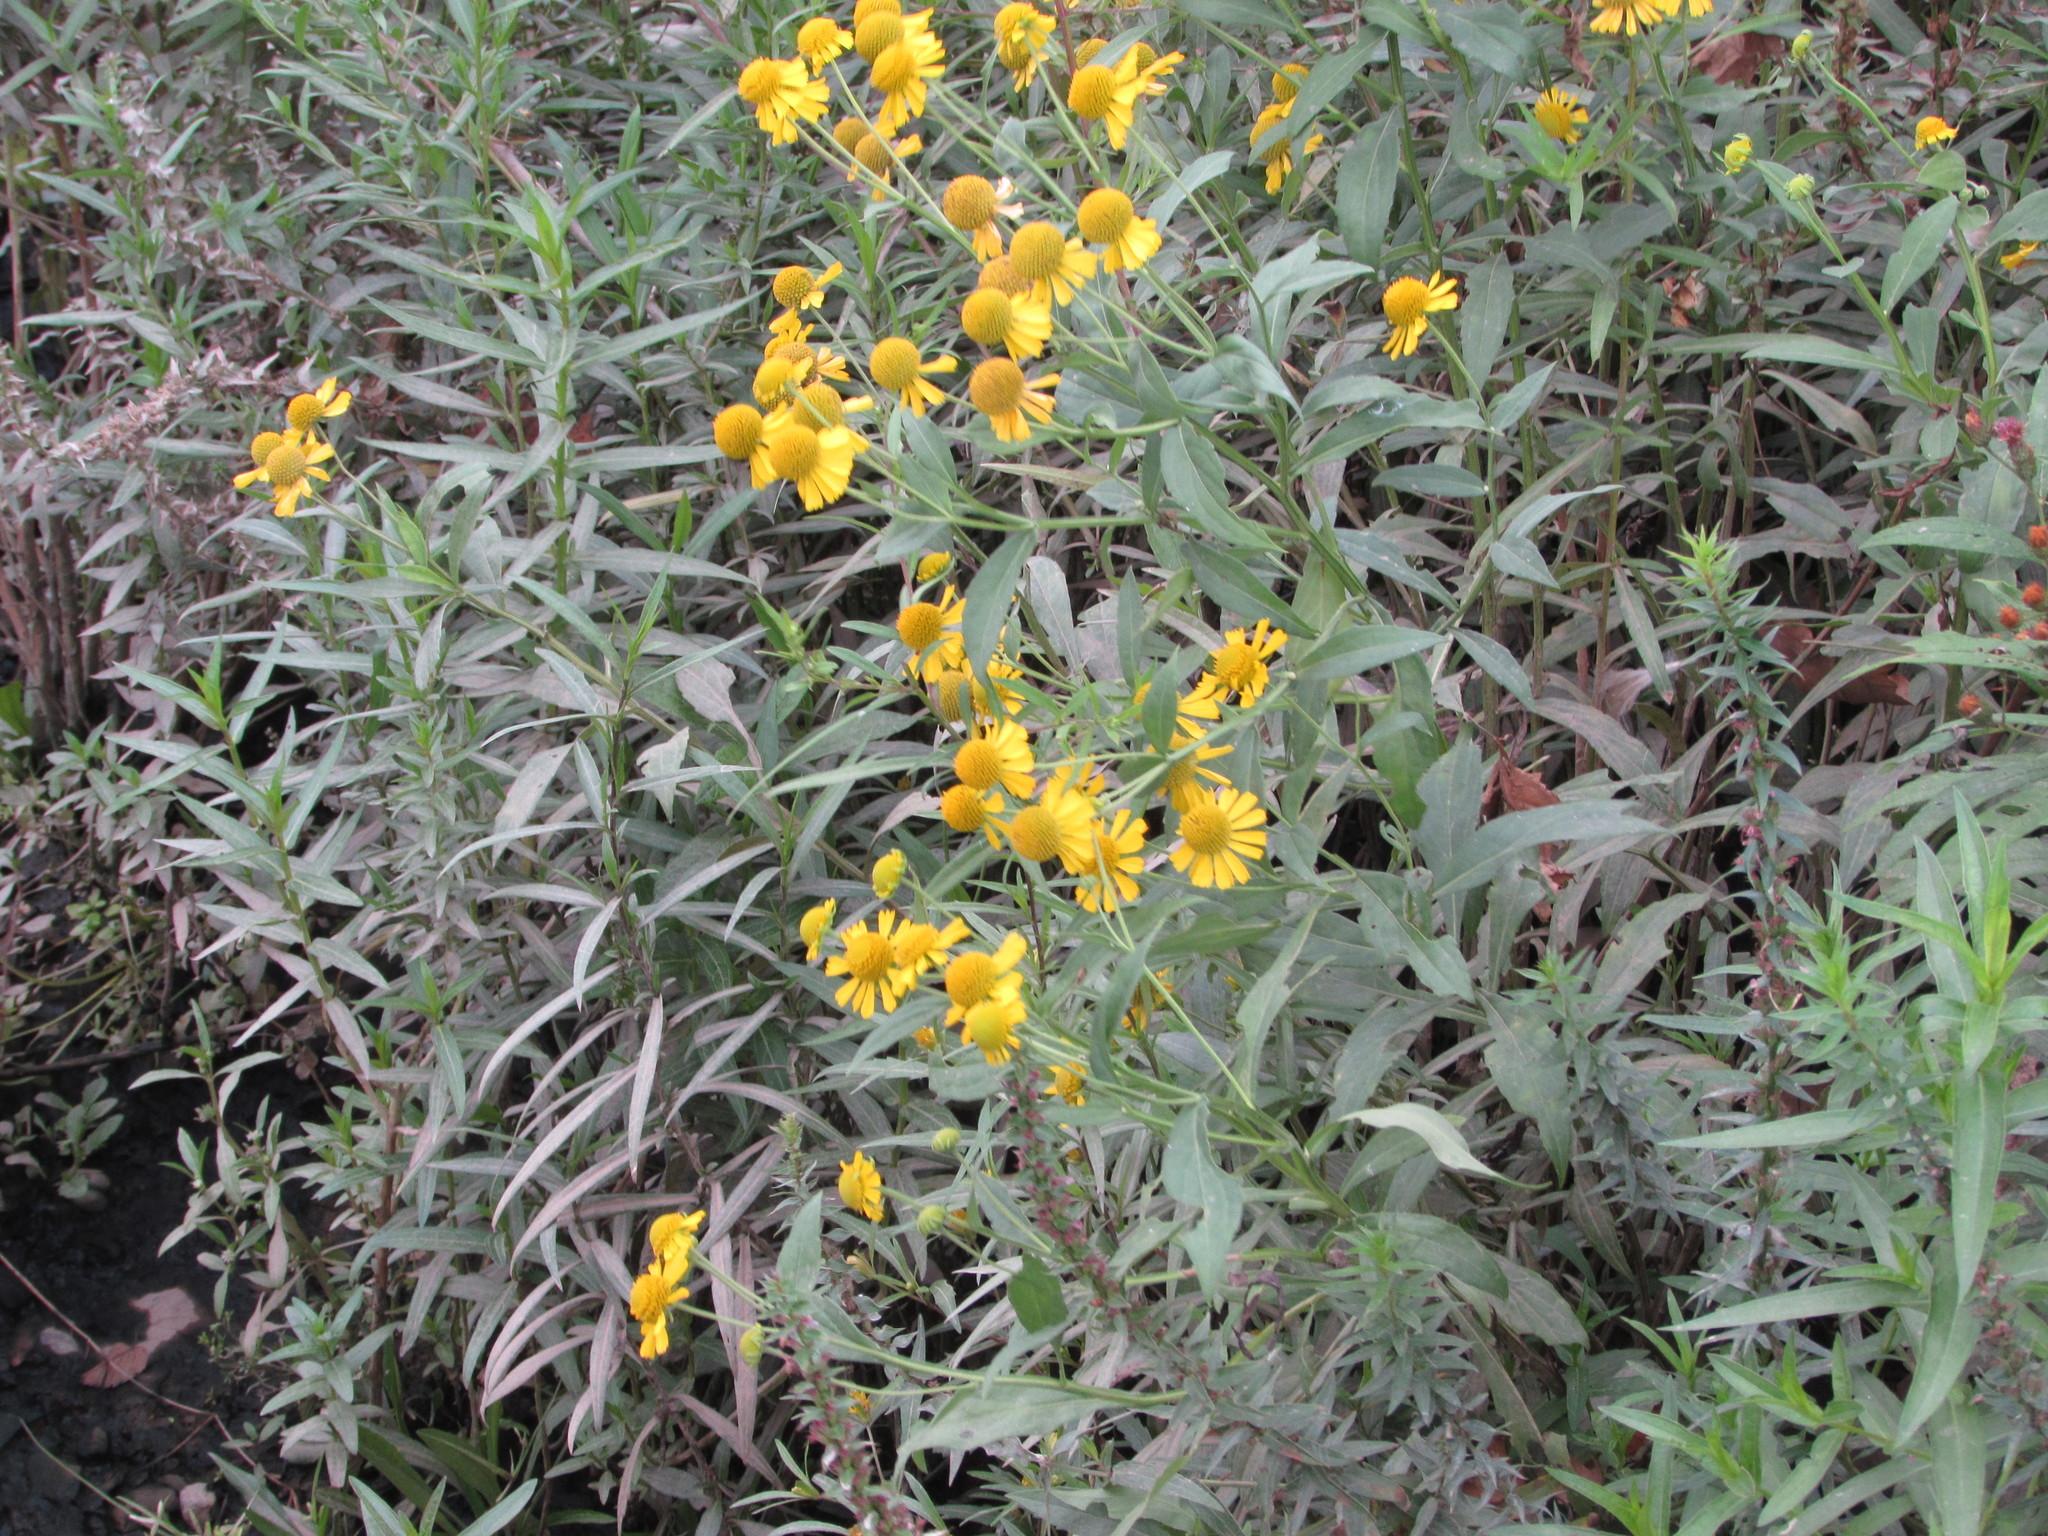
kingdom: Plantae
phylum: Tracheophyta
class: Magnoliopsida
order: Asterales
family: Asteraceae
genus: Helenium
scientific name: Helenium autumnale
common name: Sneezeweed
